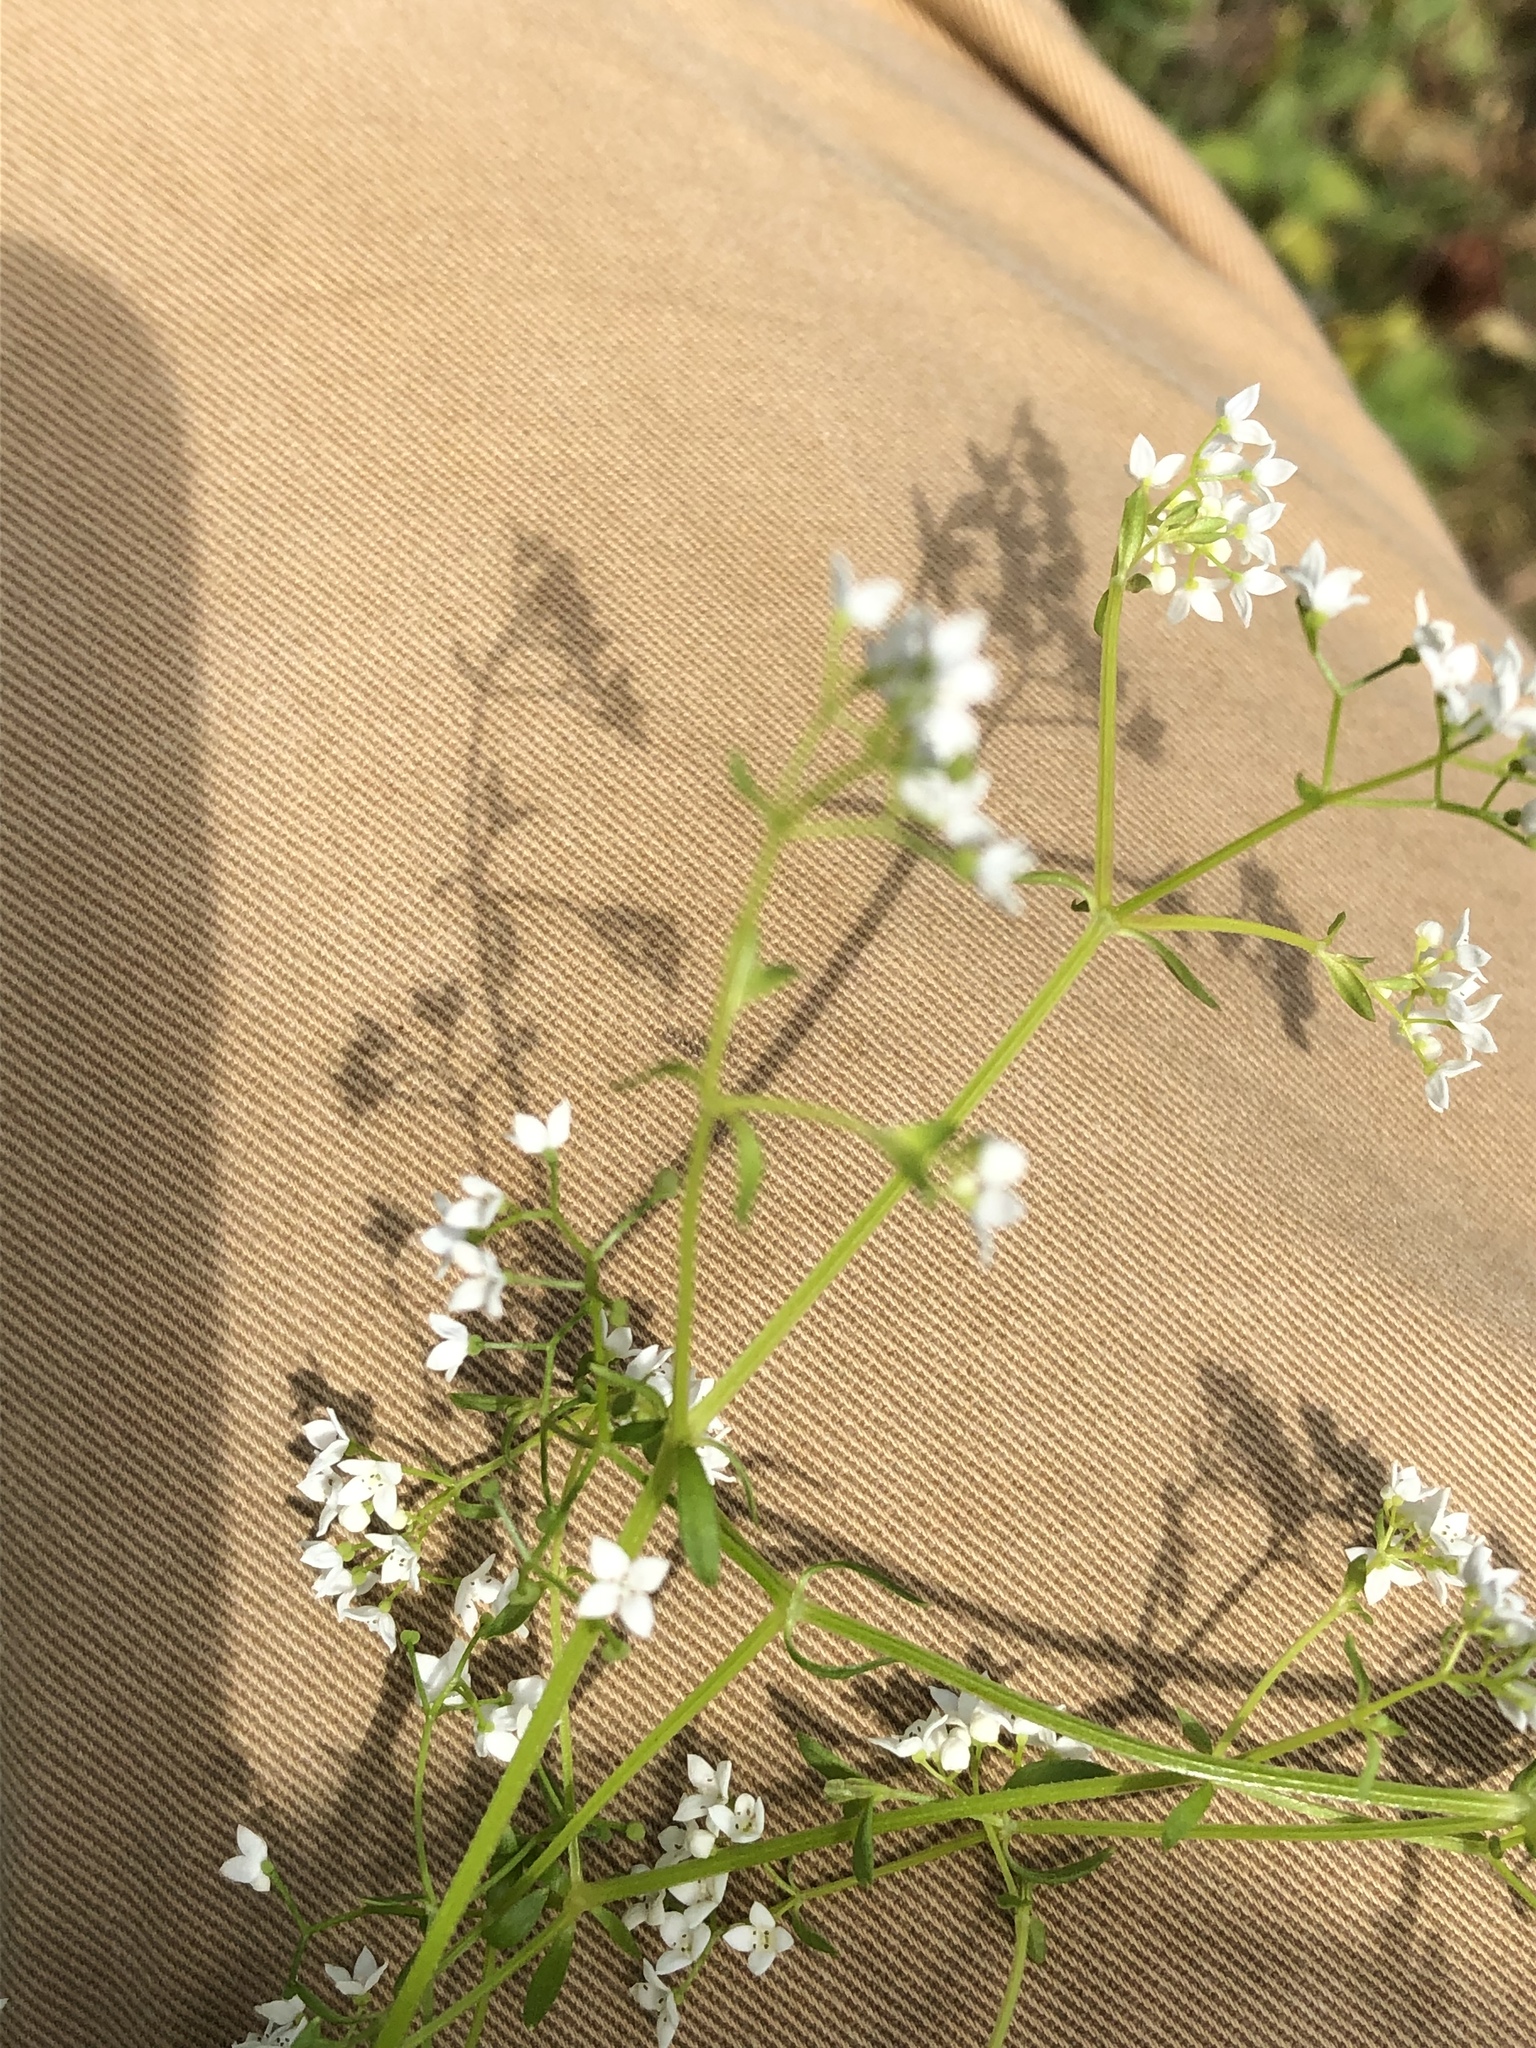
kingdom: Plantae
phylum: Tracheophyta
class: Magnoliopsida
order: Gentianales
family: Rubiaceae
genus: Galium
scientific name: Galium palustre
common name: Common marsh-bedstraw
